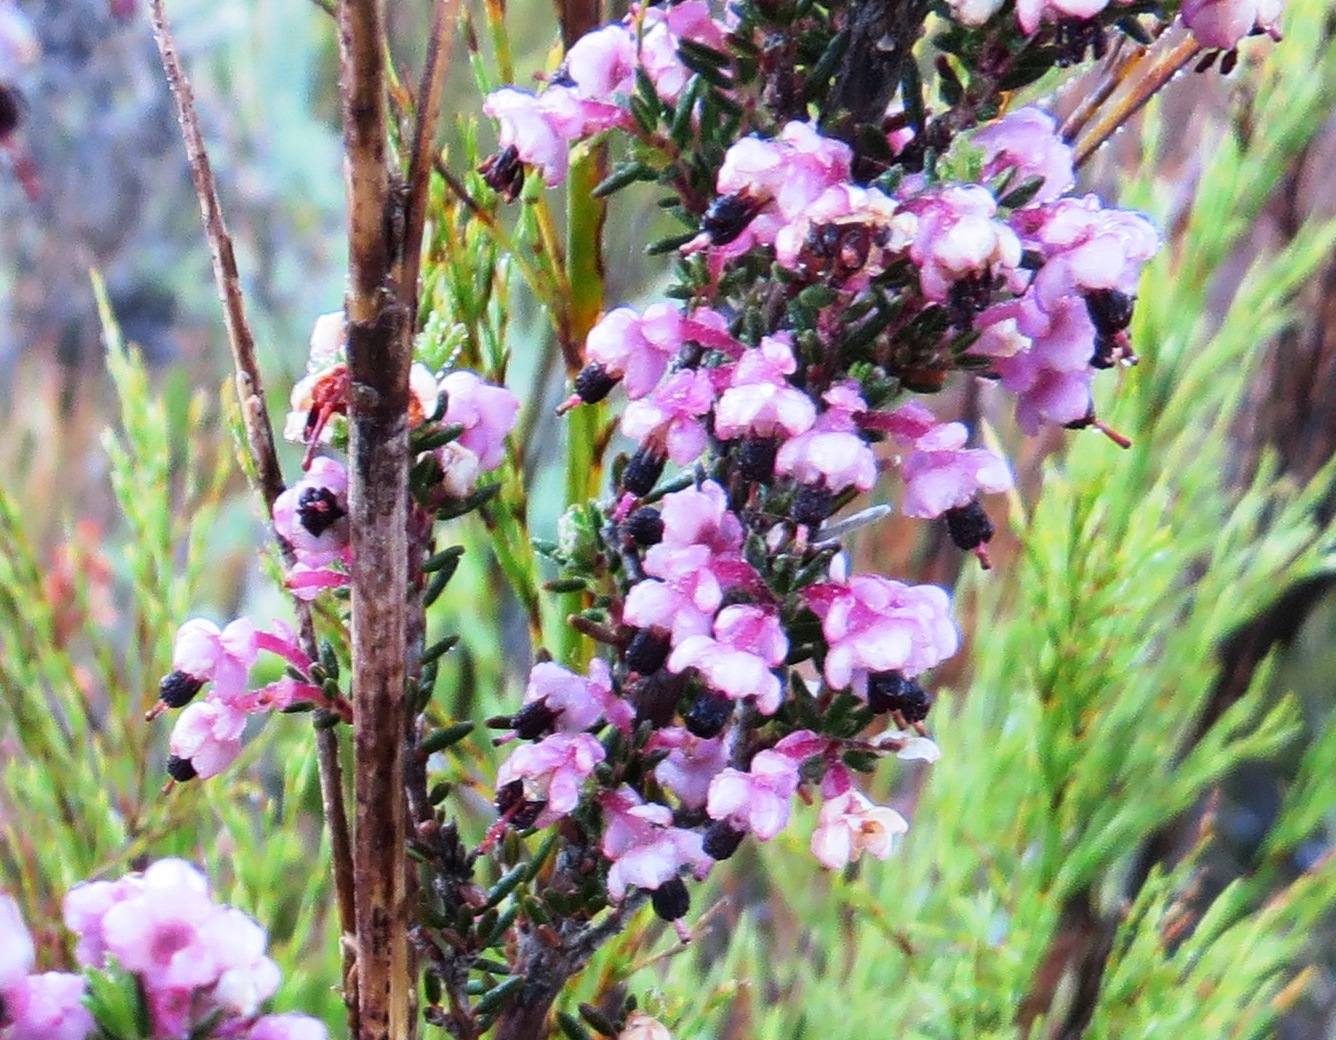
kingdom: Plantae
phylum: Tracheophyta
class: Magnoliopsida
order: Ericales
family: Ericaceae
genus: Erica
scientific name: Erica placentiflora
